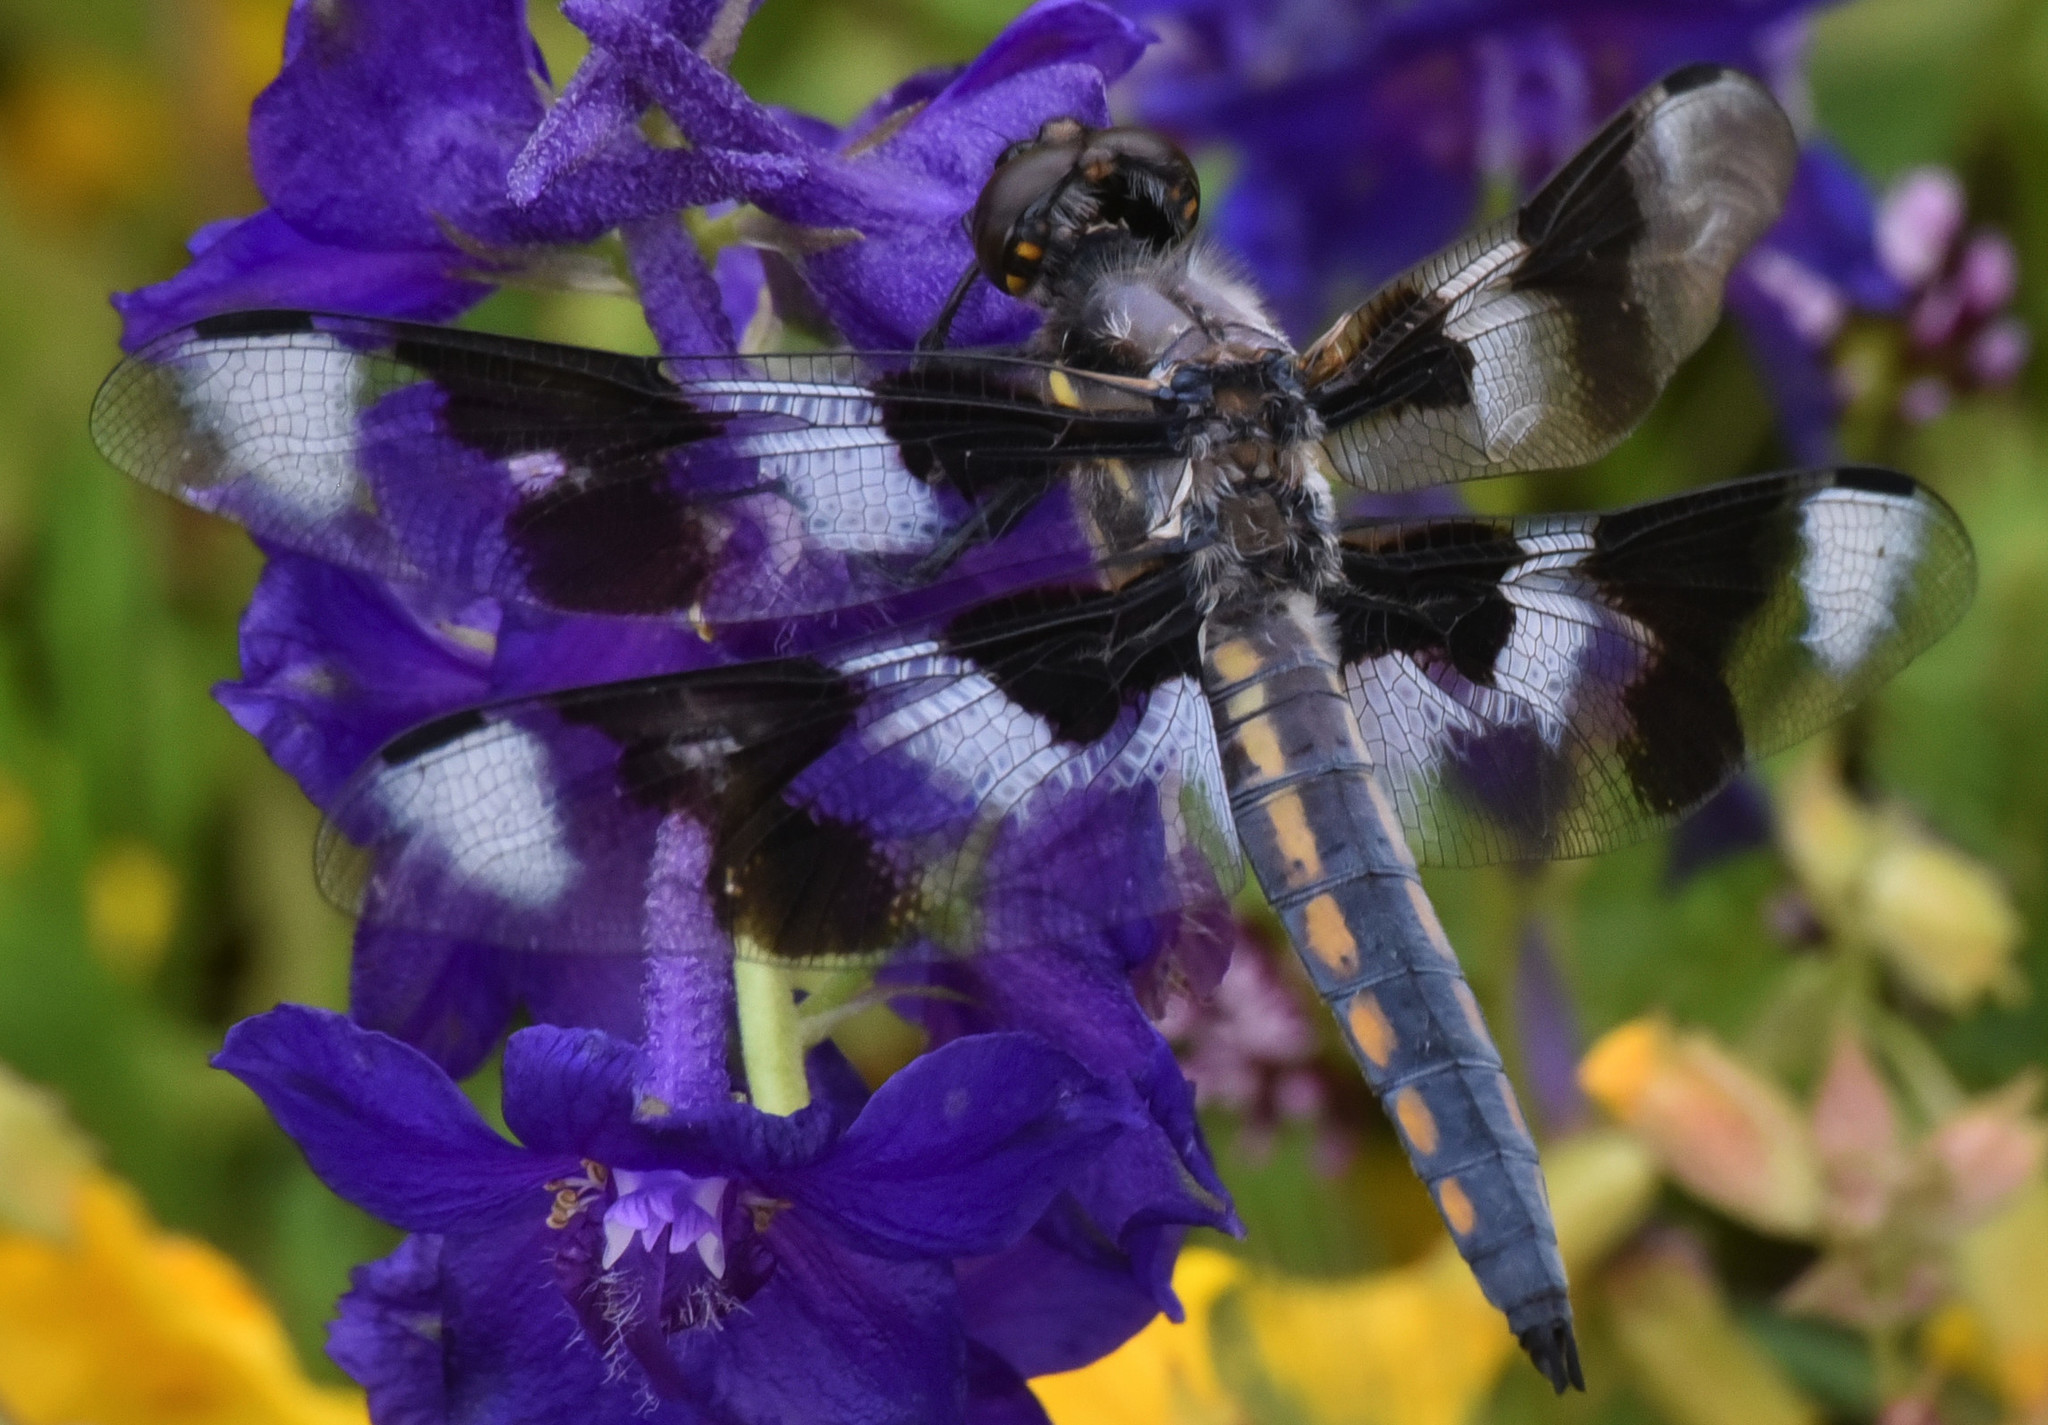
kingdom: Animalia
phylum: Arthropoda
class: Insecta
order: Odonata
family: Libellulidae
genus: Libellula
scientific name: Libellula forensis
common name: Eight-spotted skimmer
